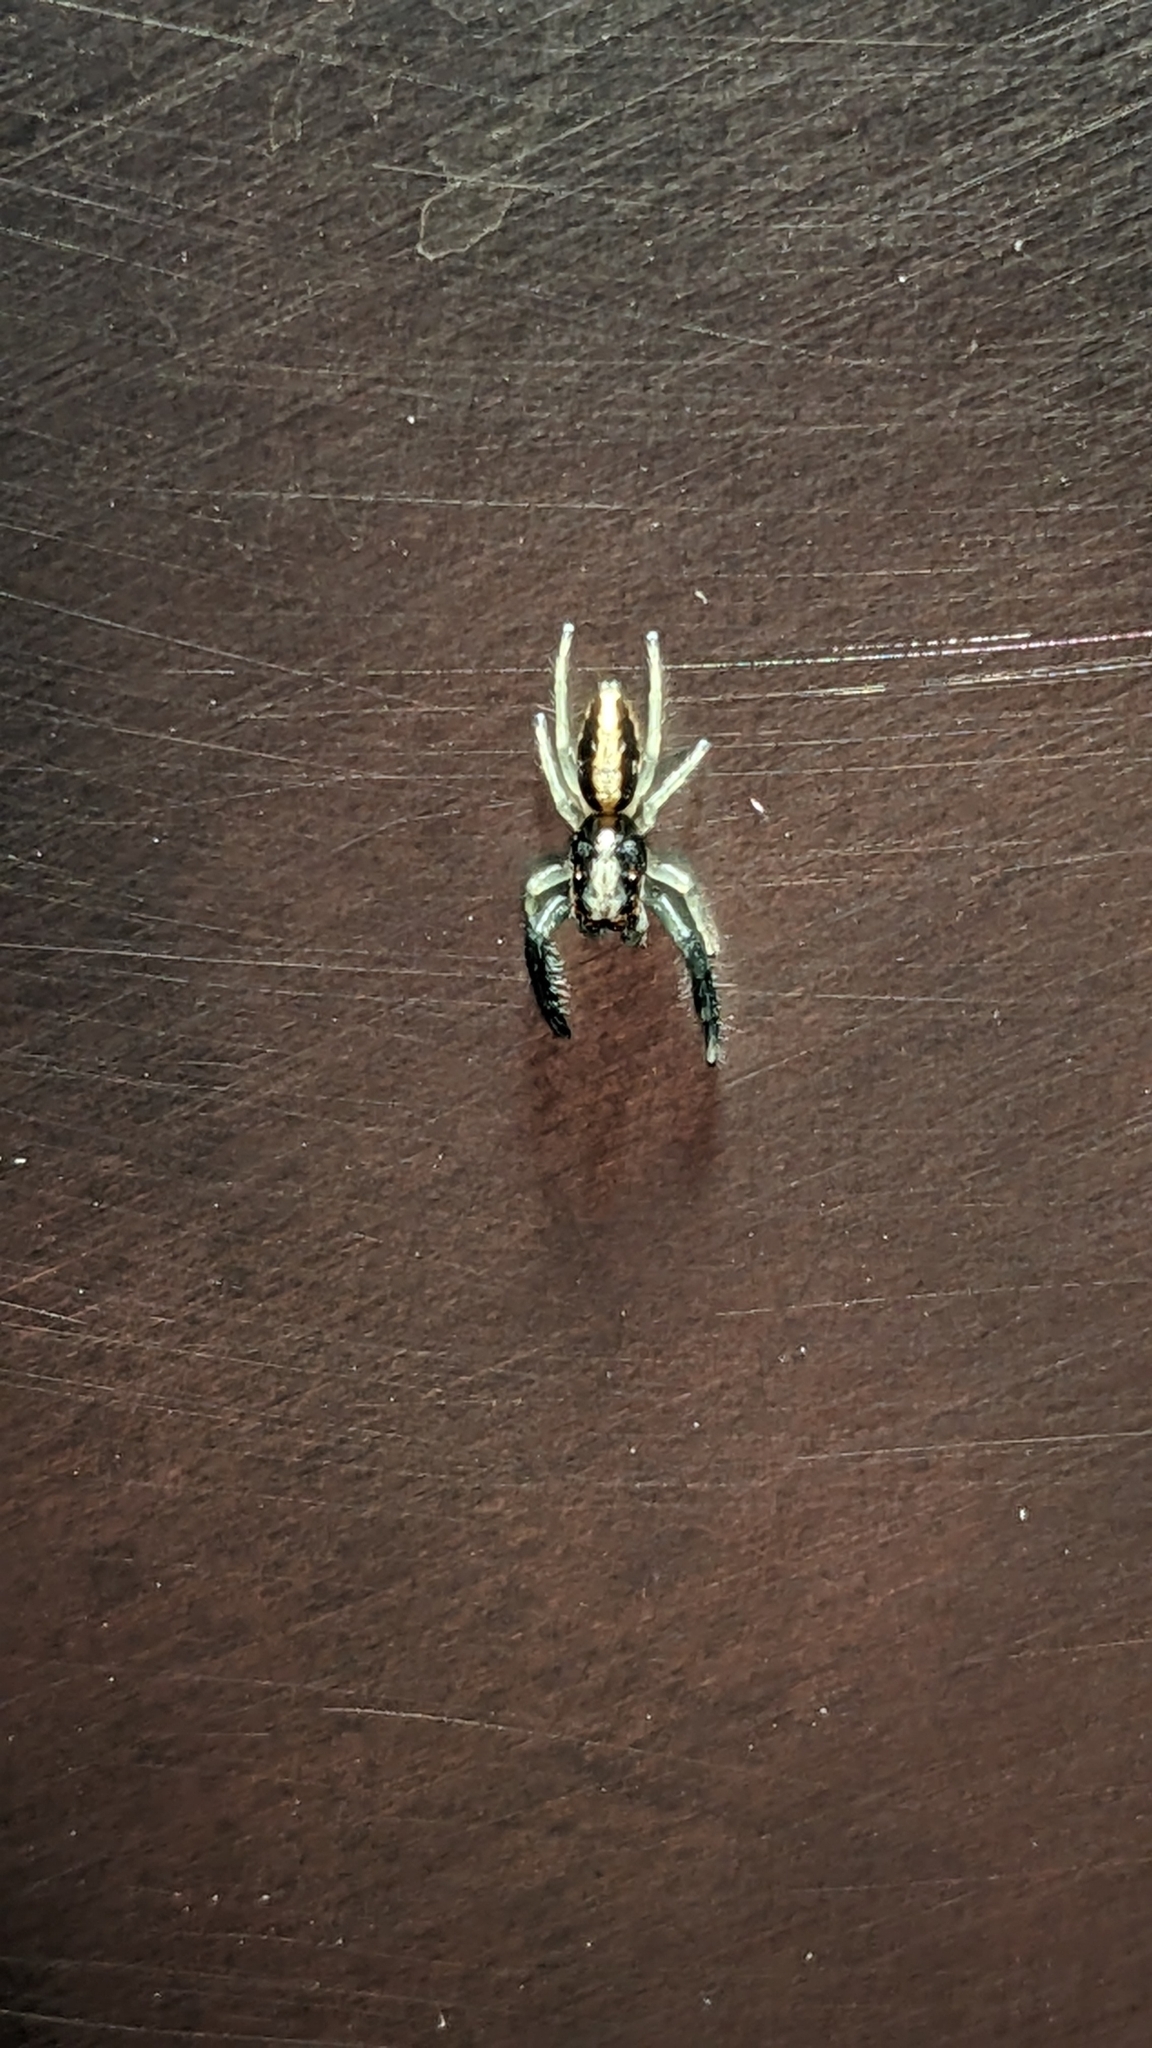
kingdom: Animalia
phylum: Arthropoda
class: Arachnida
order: Araneae
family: Salticidae
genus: Trite
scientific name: Trite planiceps
